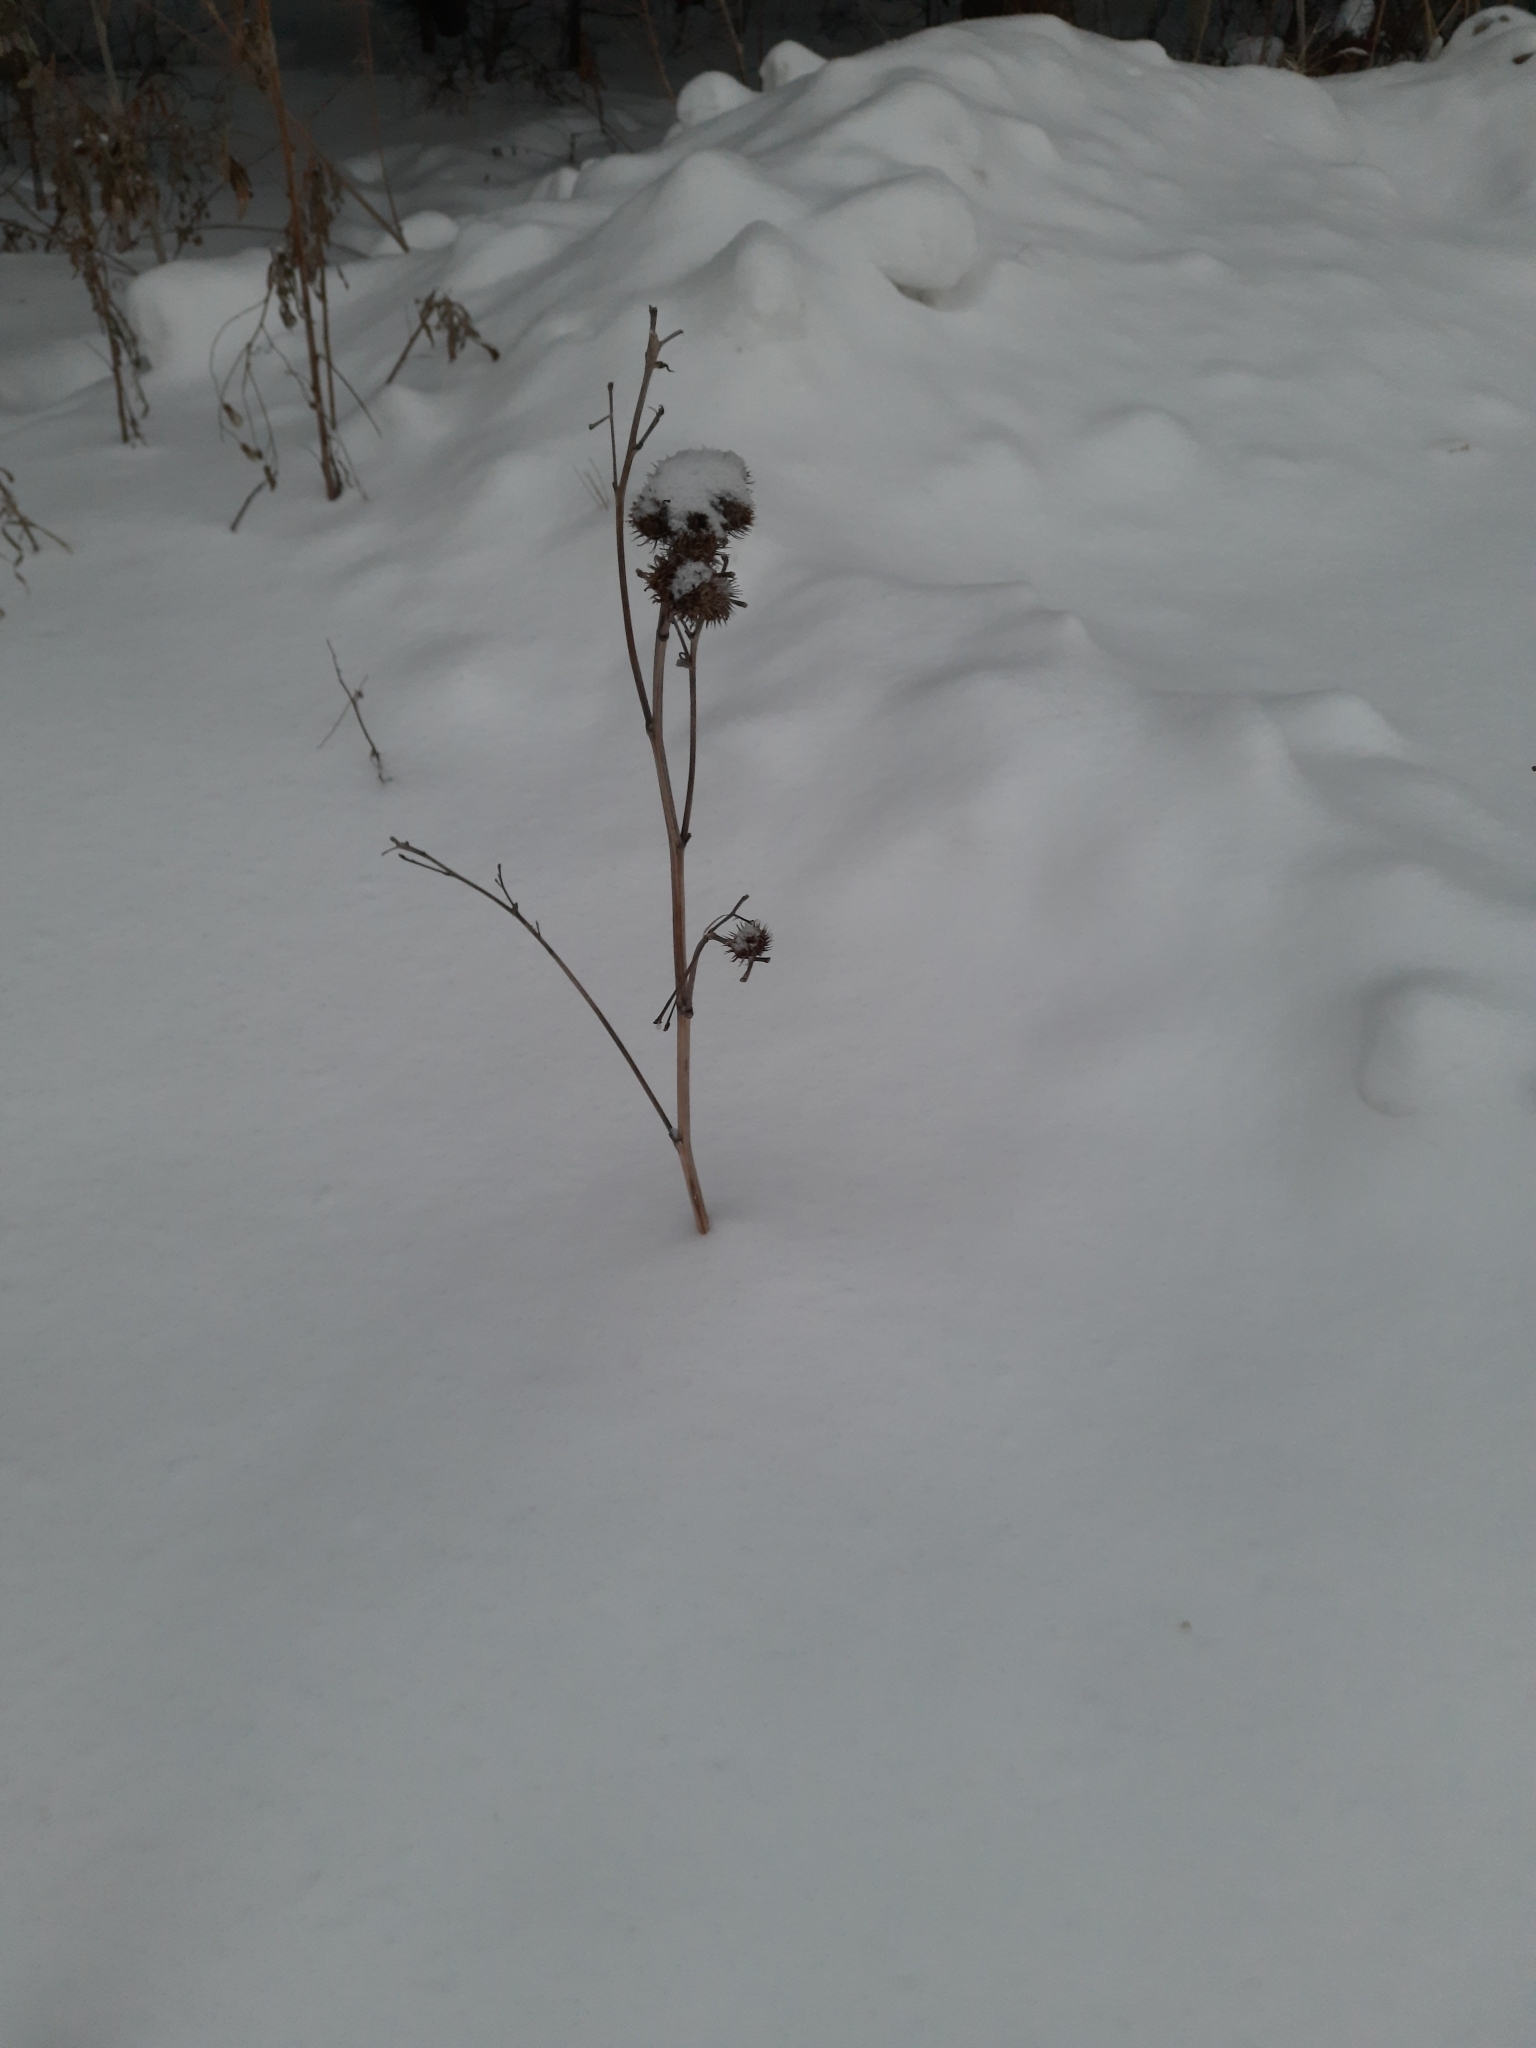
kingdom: Plantae
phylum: Tracheophyta
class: Magnoliopsida
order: Asterales
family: Asteraceae
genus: Arctium
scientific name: Arctium tomentosum
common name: Woolly burdock
